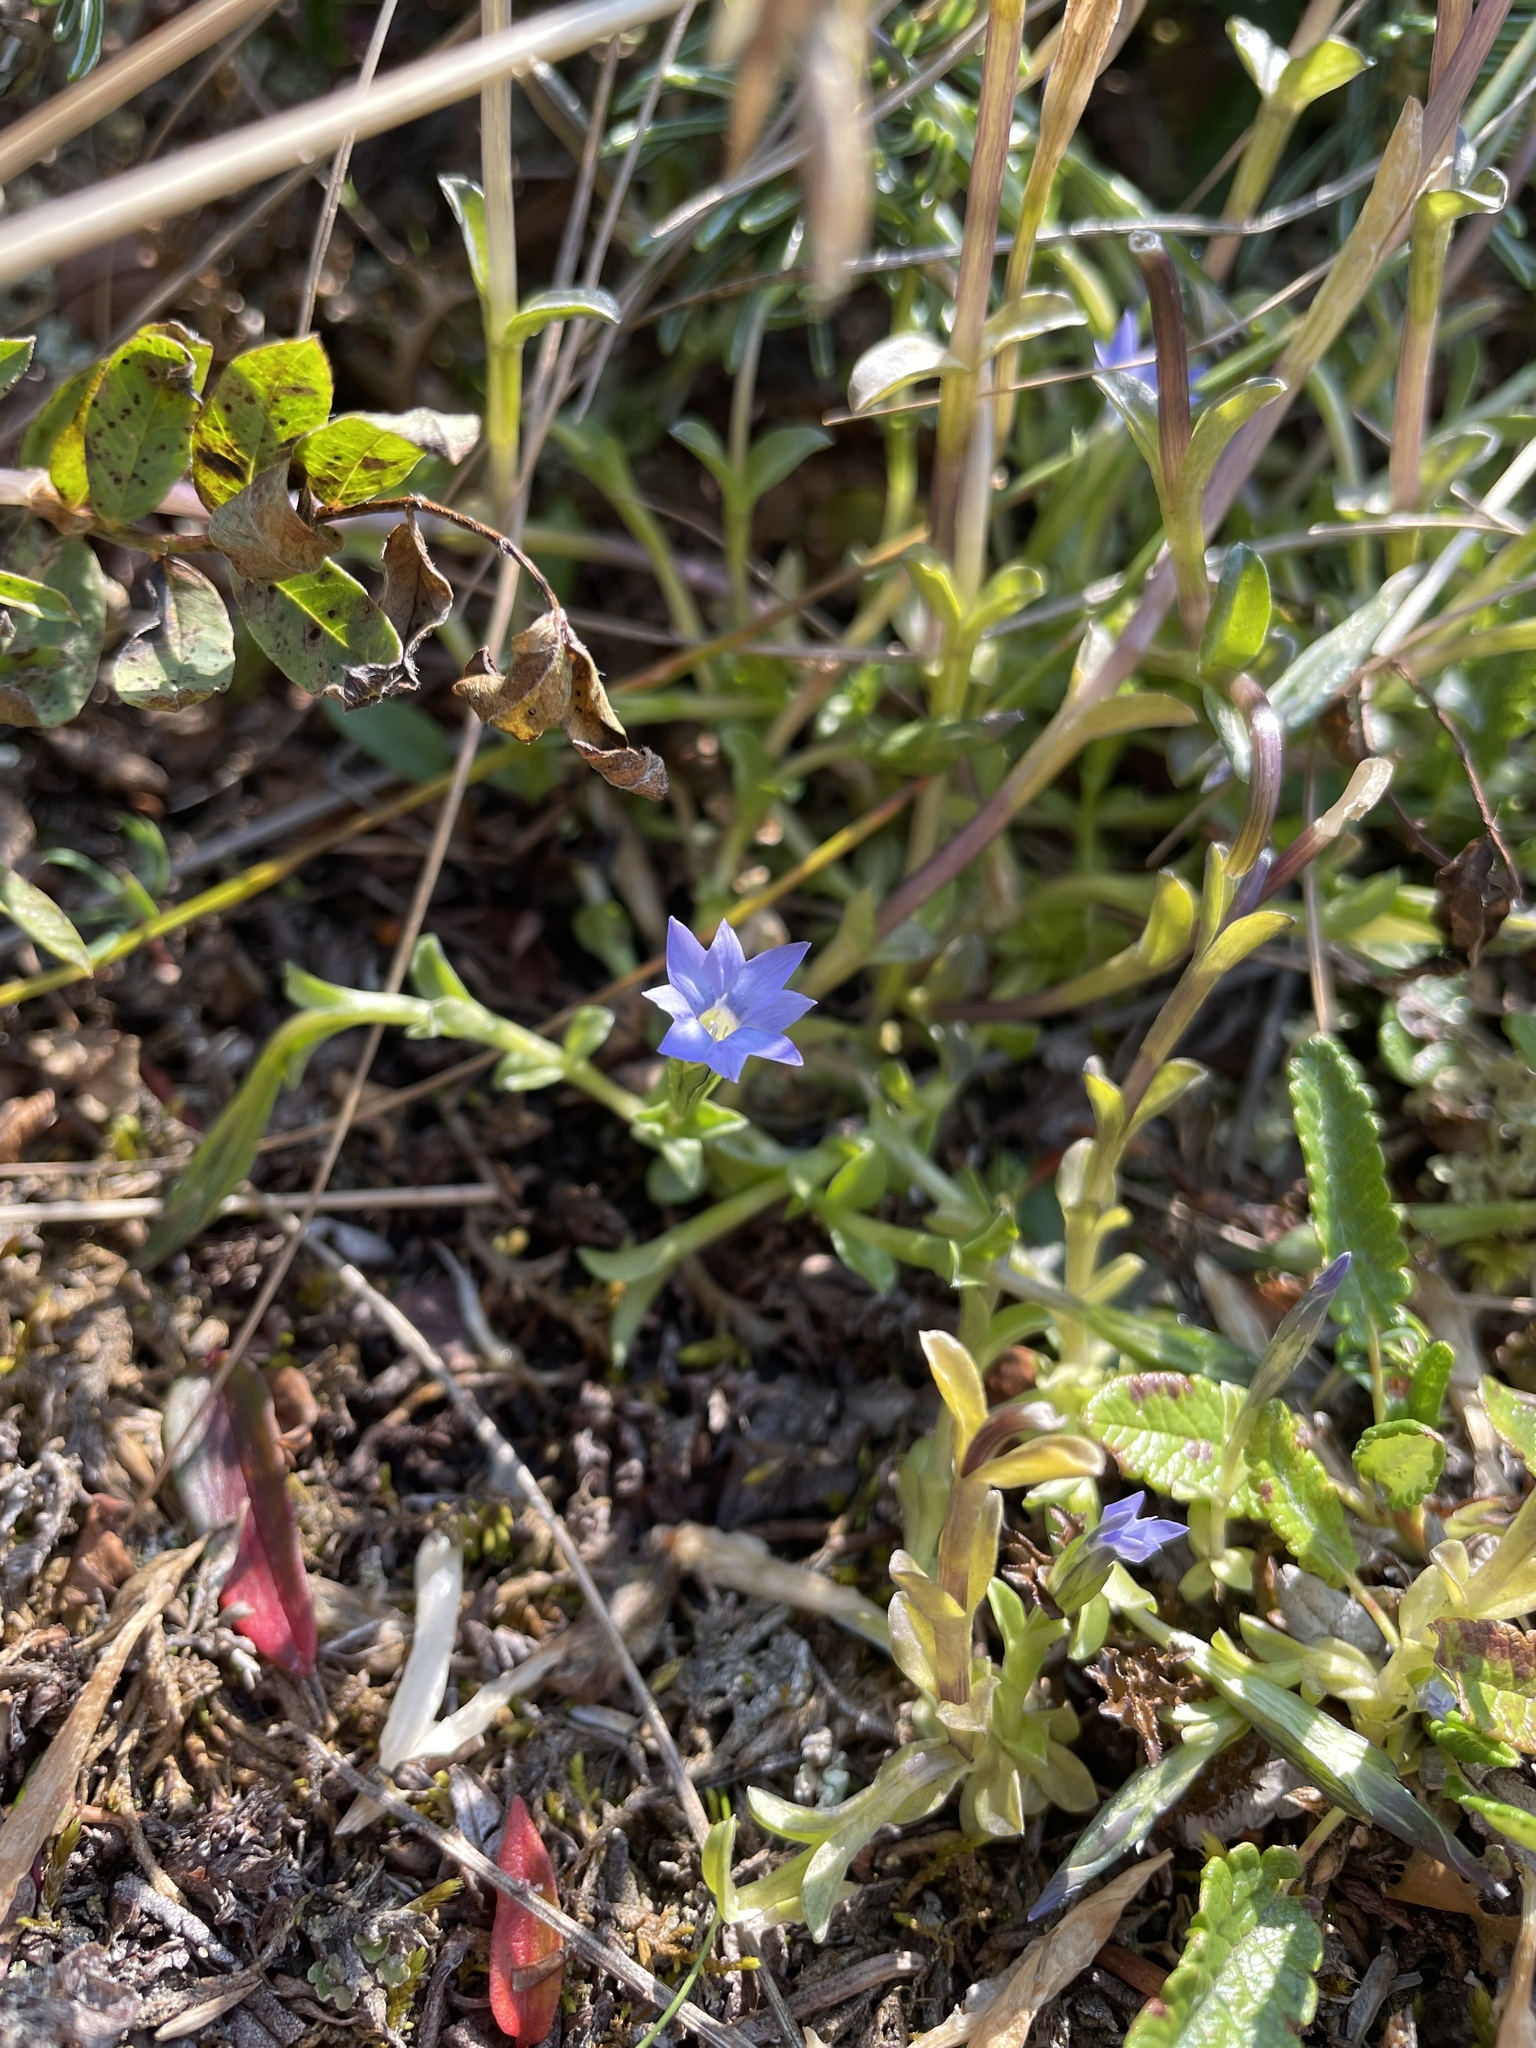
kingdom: Plantae
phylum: Tracheophyta
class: Magnoliopsida
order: Gentianales
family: Gentianaceae
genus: Gentiana
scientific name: Gentiana prostrata
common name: Moss gentian
